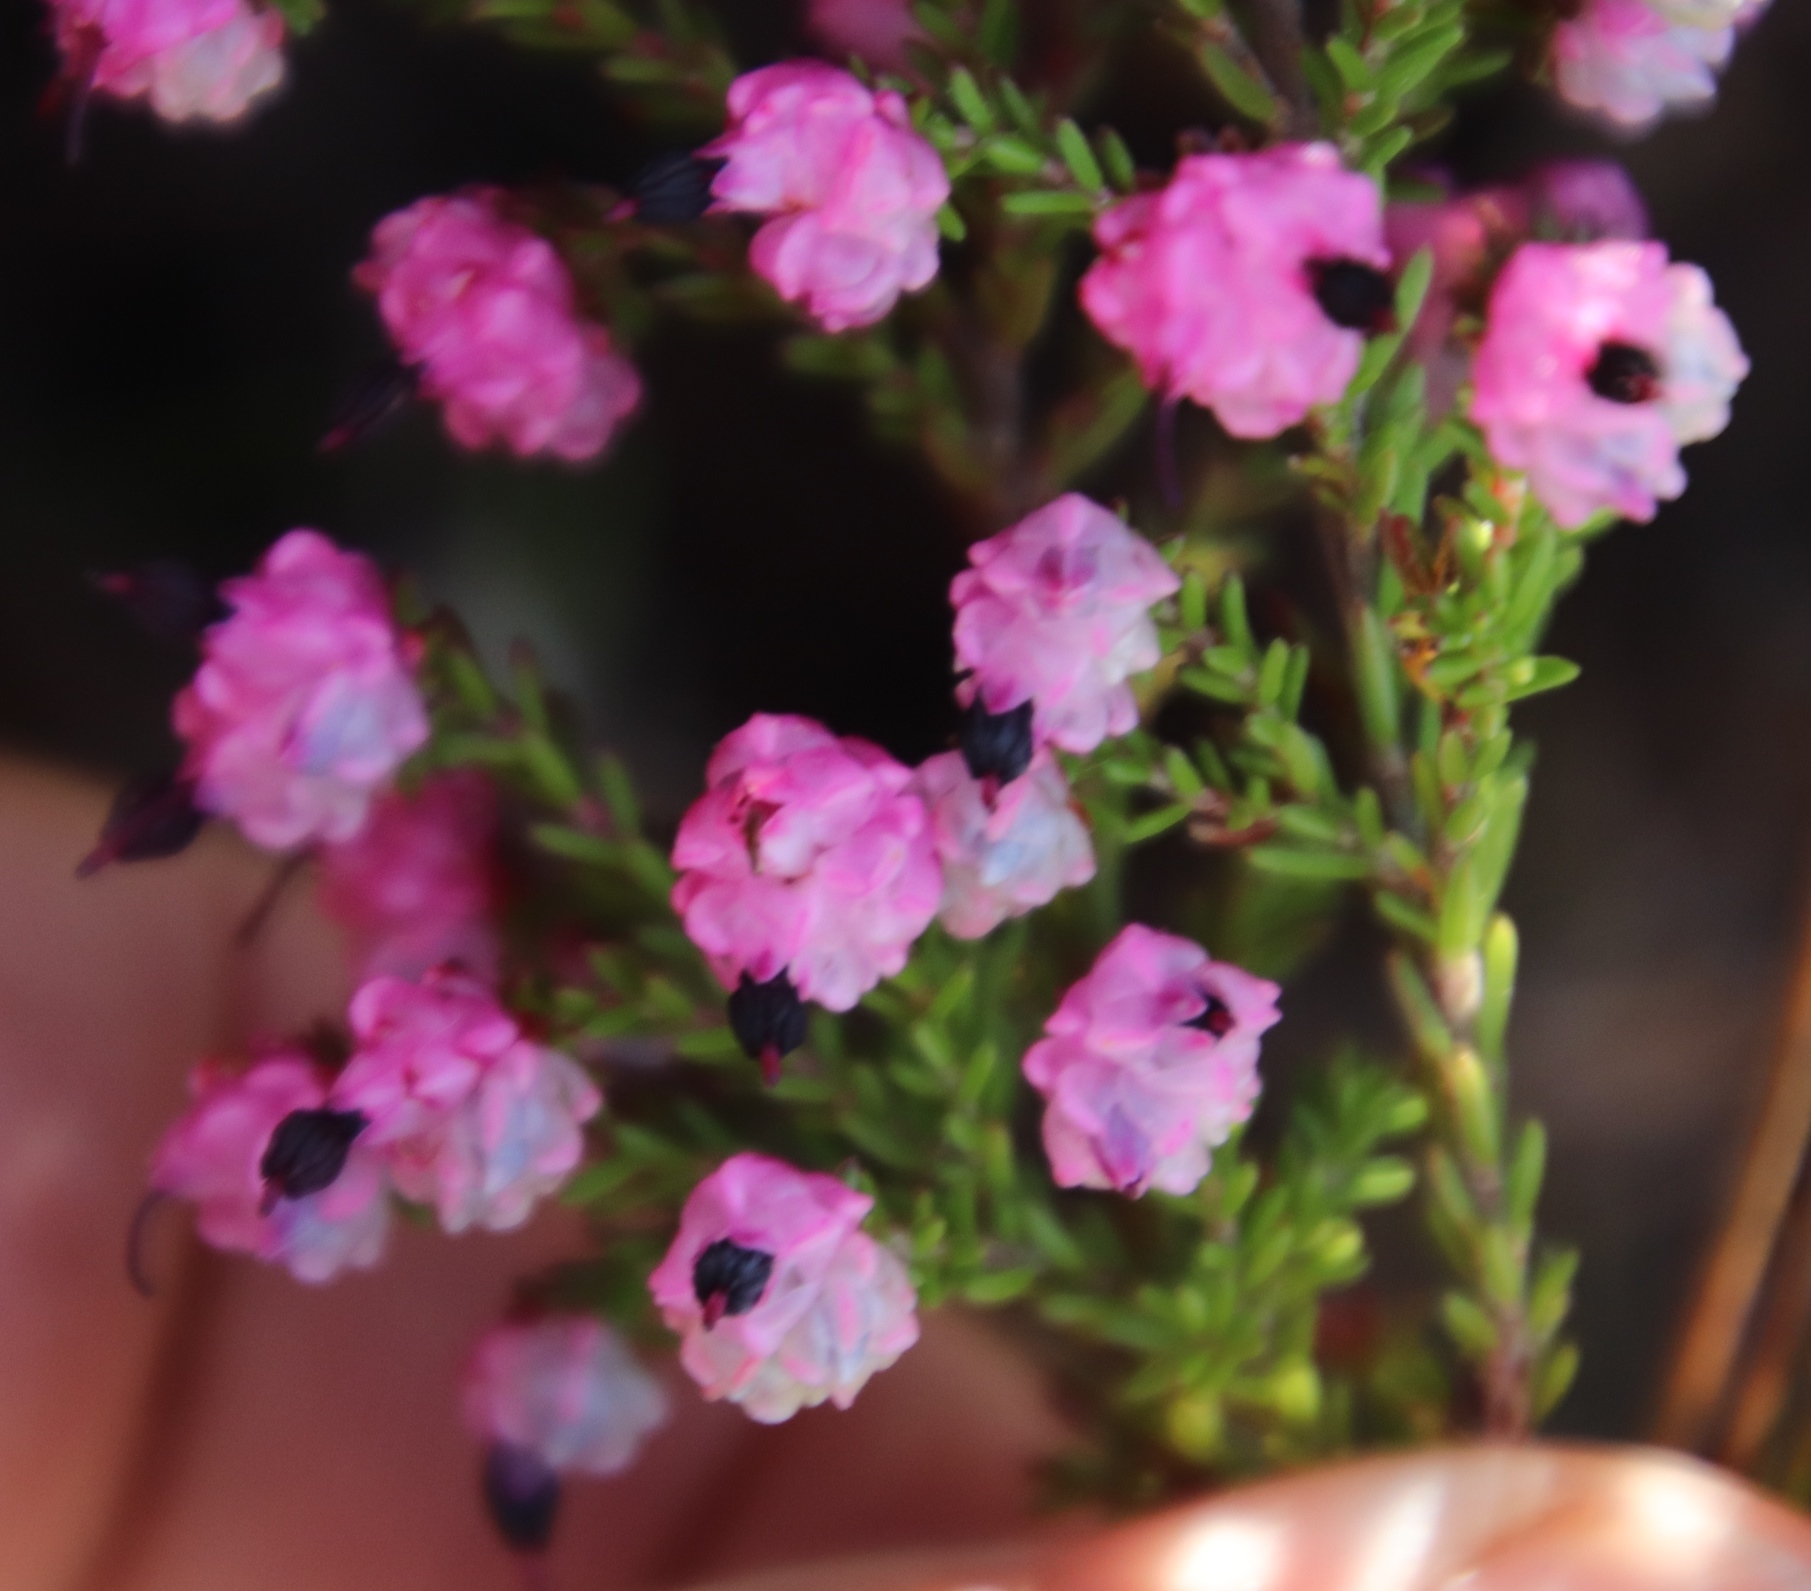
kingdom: Plantae
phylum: Tracheophyta
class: Magnoliopsida
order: Ericales
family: Ericaceae
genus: Erica
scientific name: Erica spumosa
